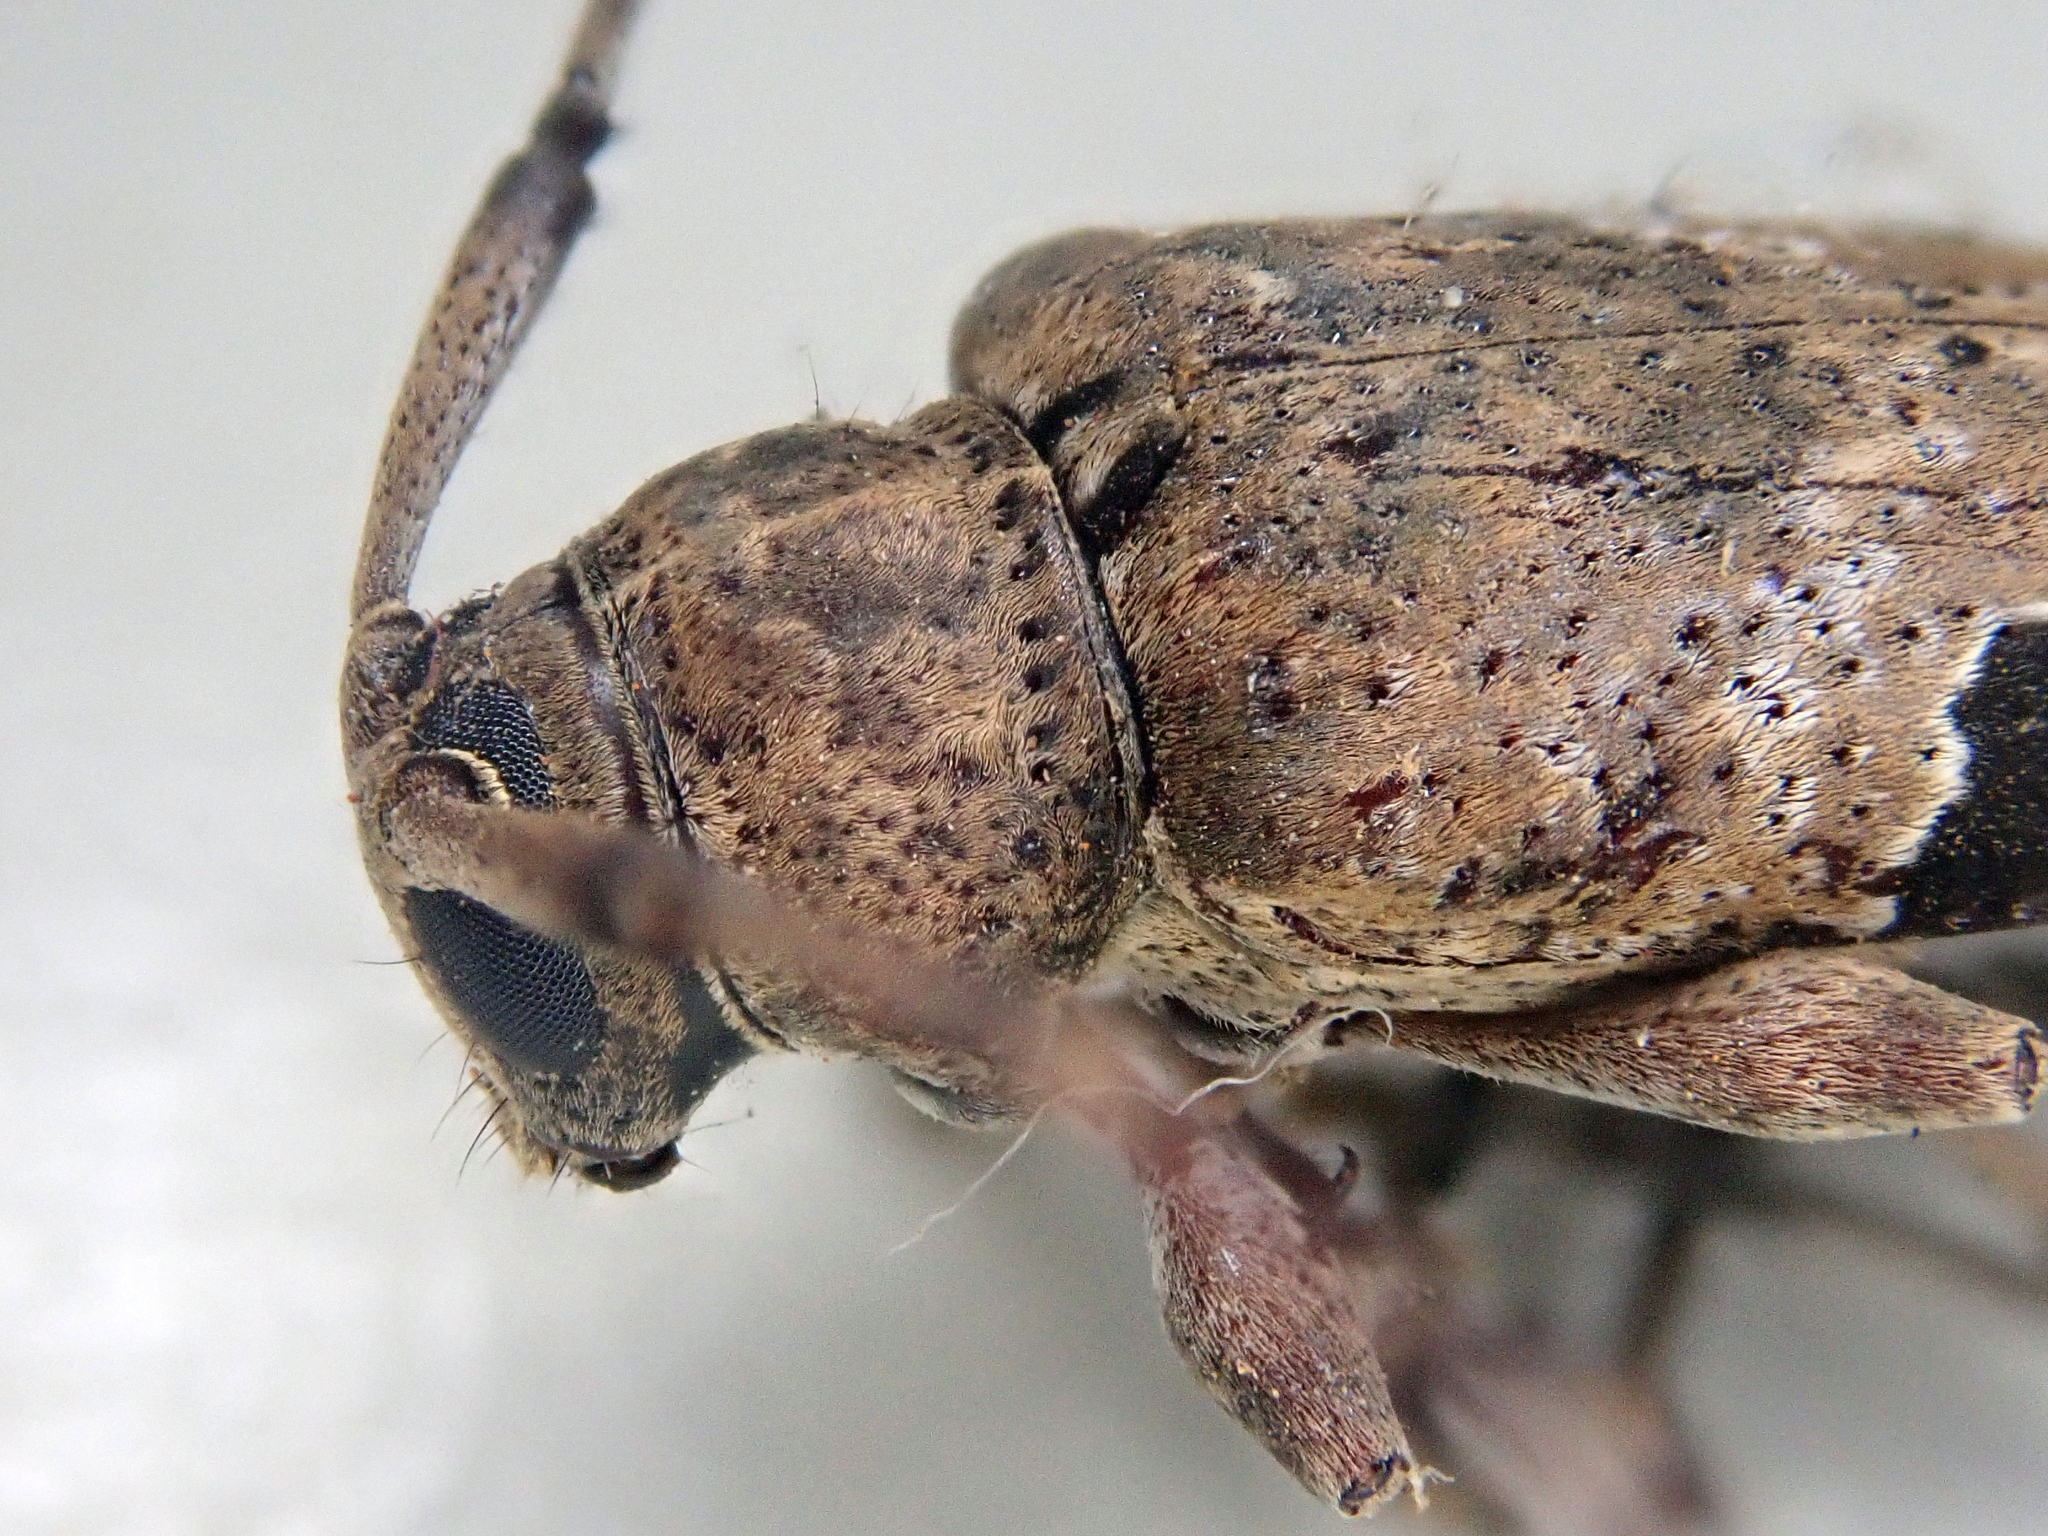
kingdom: Animalia
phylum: Arthropoda
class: Insecta
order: Coleoptera
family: Cerambycidae
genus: Hylettus
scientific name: Hylettus seniculus
